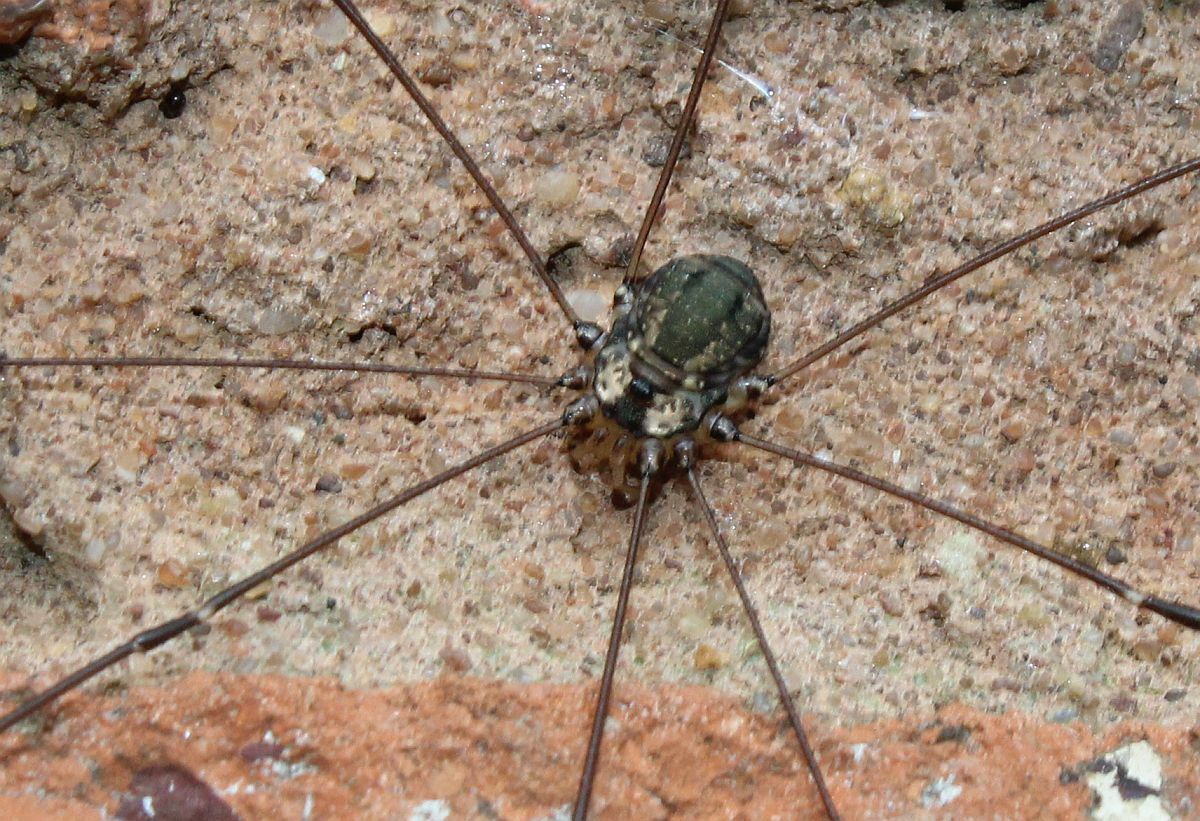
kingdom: Animalia
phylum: Arthropoda
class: Arachnida
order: Opiliones
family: Sclerosomatidae
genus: Leiobunum
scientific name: Leiobunum
